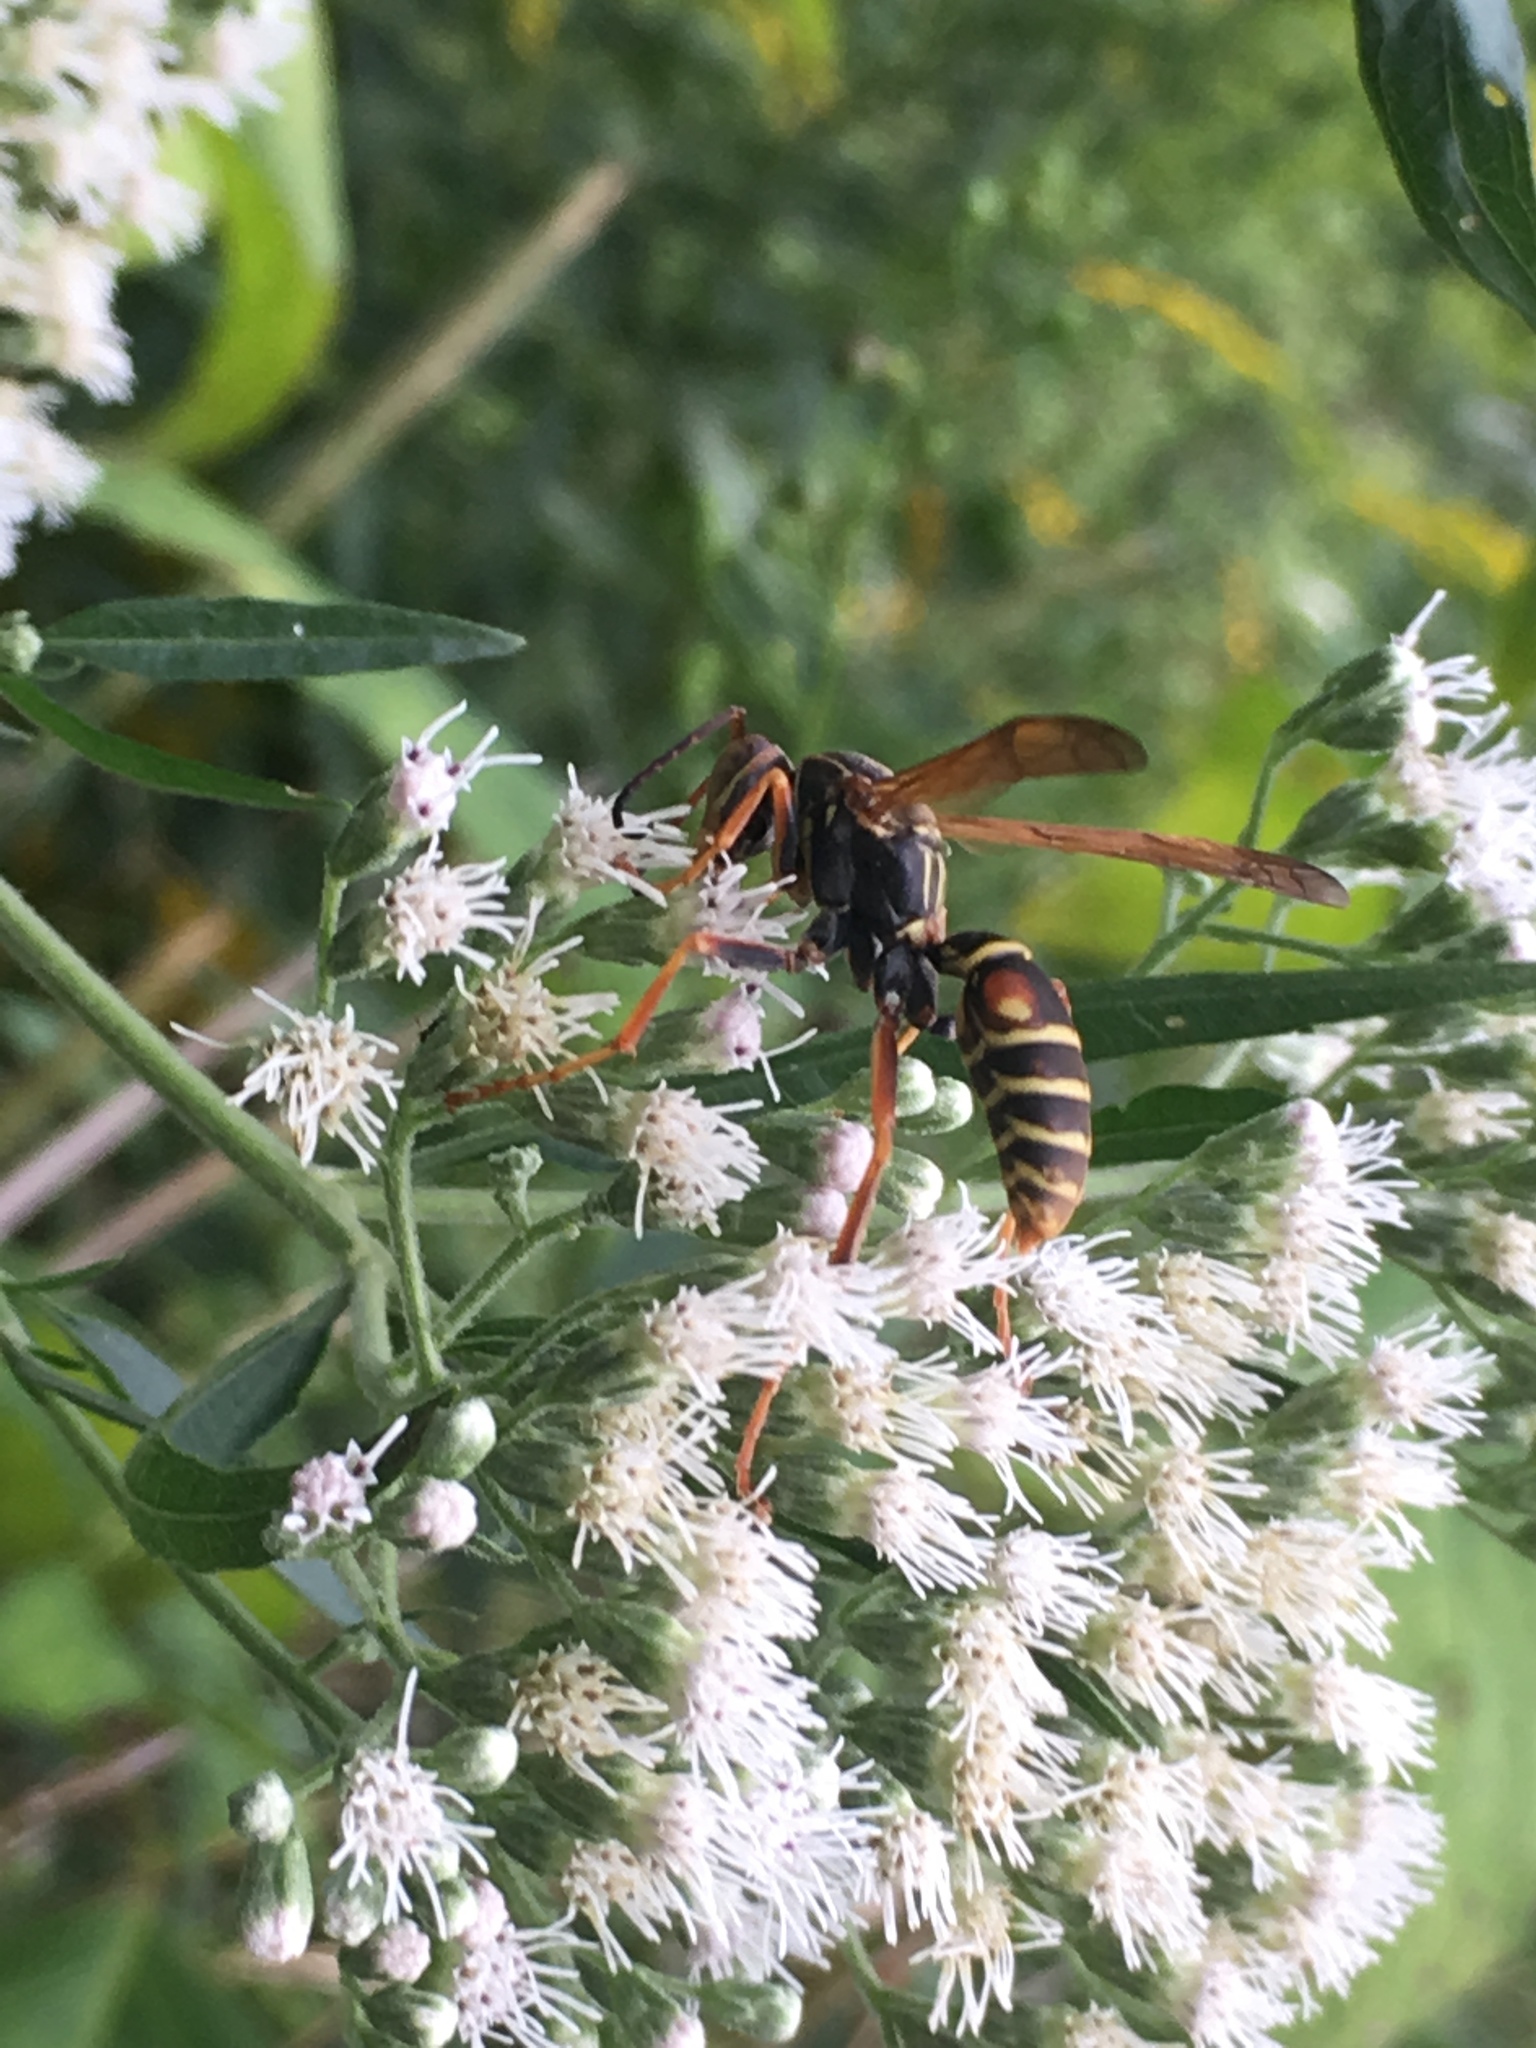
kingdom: Animalia
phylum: Arthropoda
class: Insecta
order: Hymenoptera
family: Eumenidae
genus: Polistes
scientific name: Polistes fuscatus
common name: Dark paper wasp
